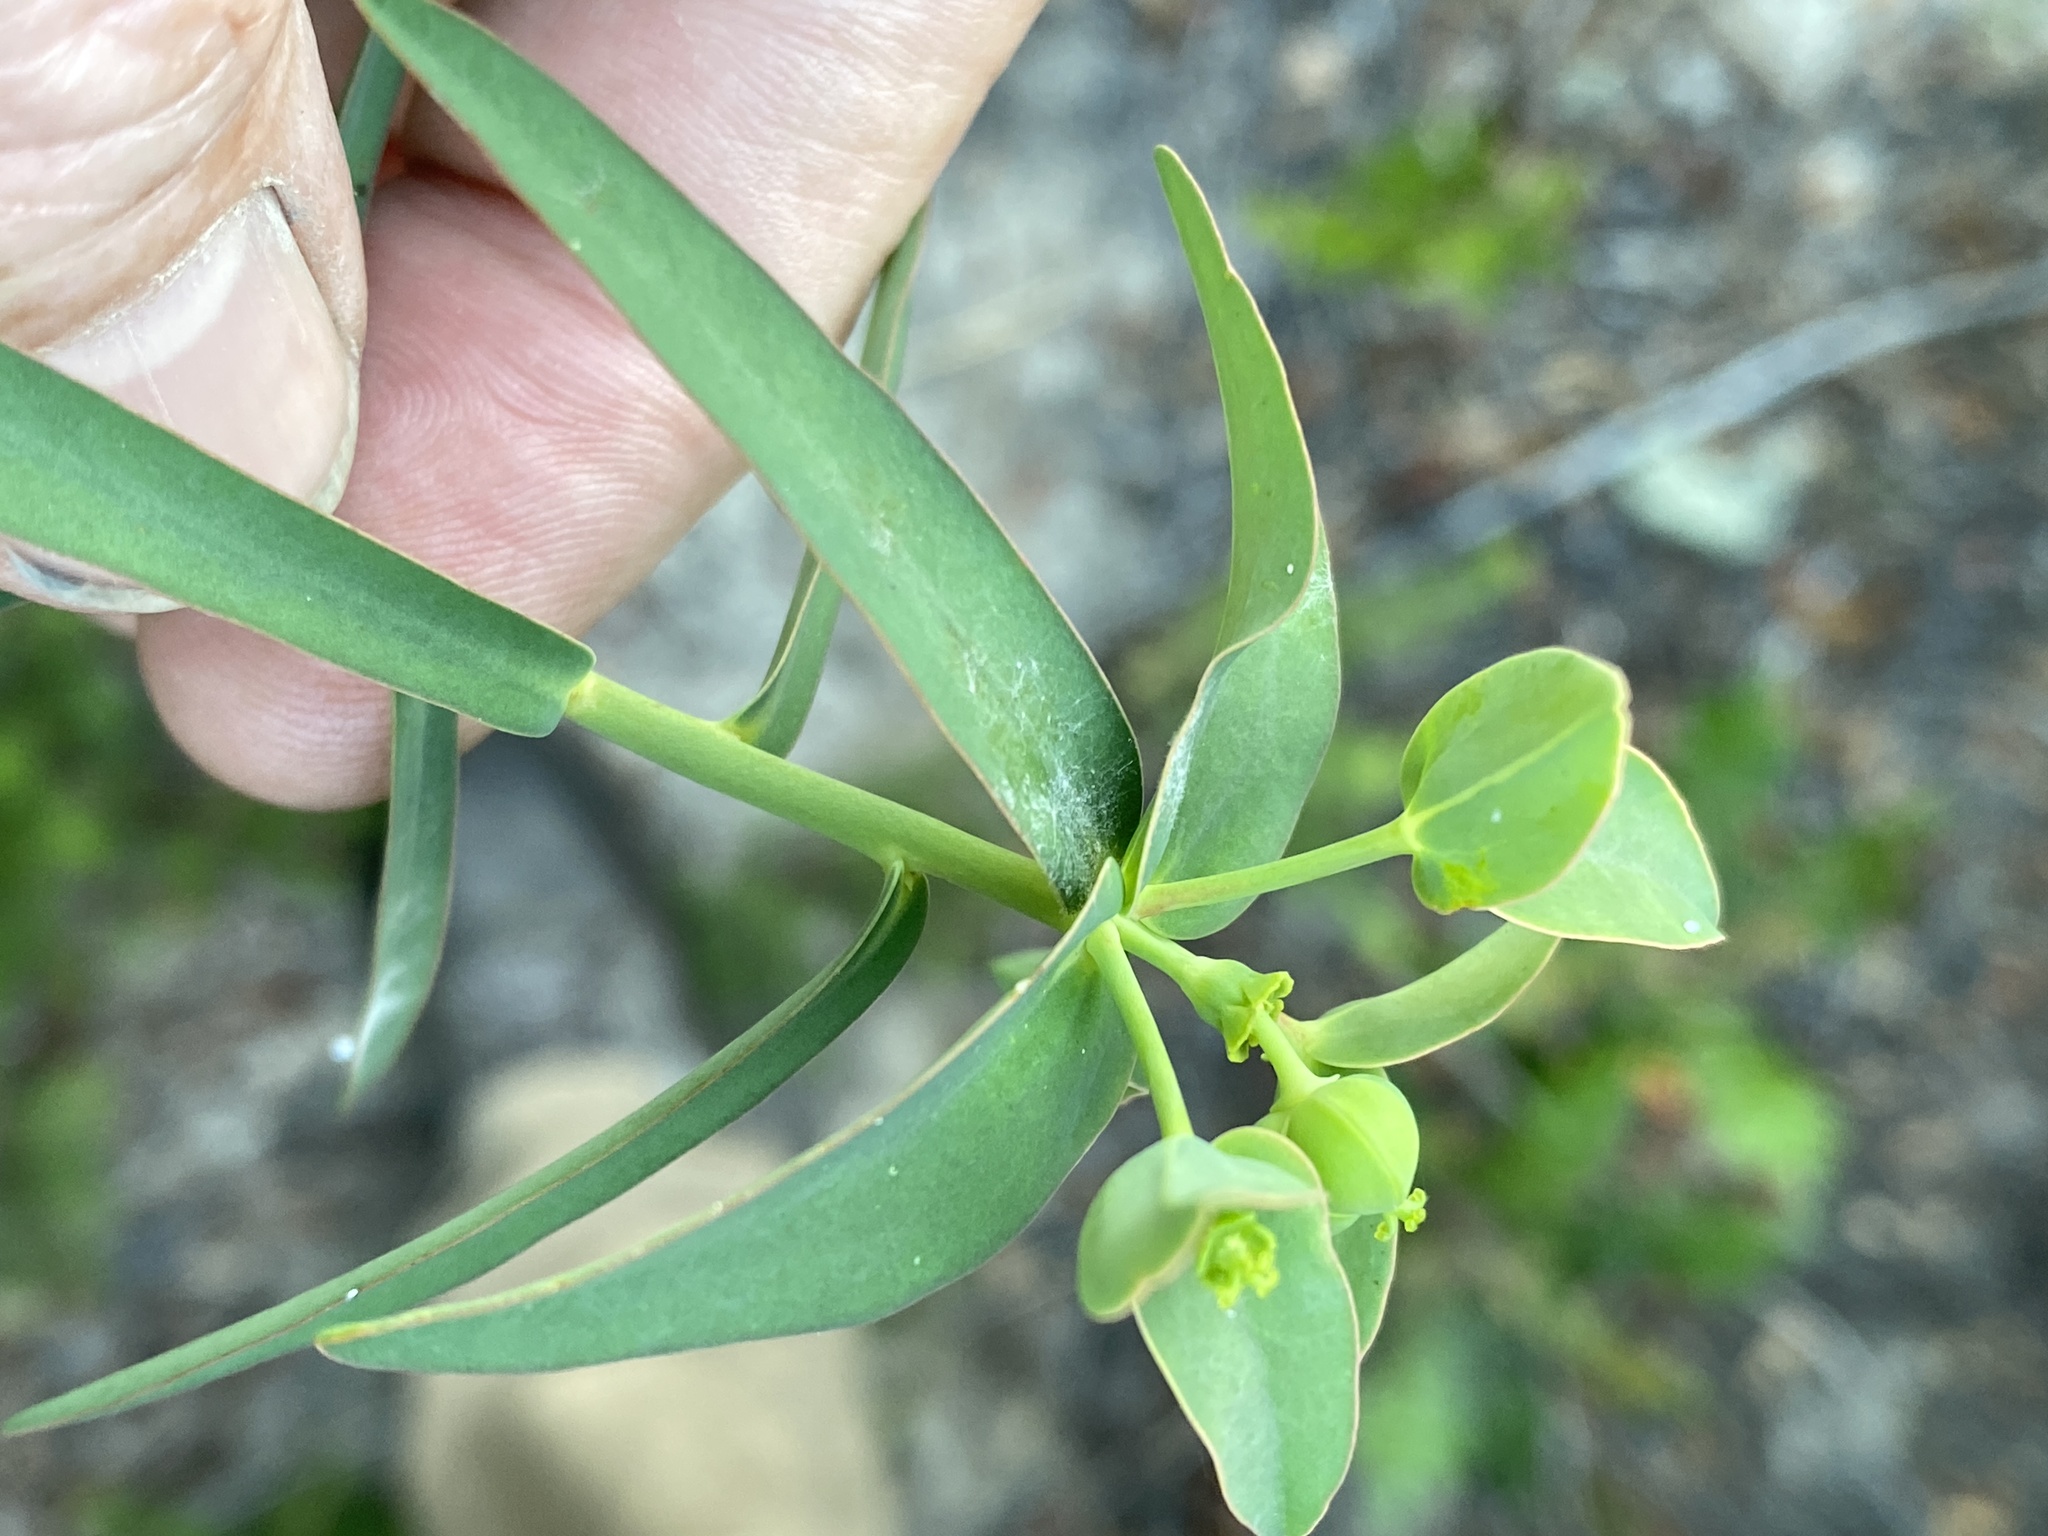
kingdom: Plantae
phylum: Tracheophyta
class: Magnoliopsida
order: Malpighiales
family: Euphorbiaceae
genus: Euphorbia
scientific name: Euphorbia floridana
